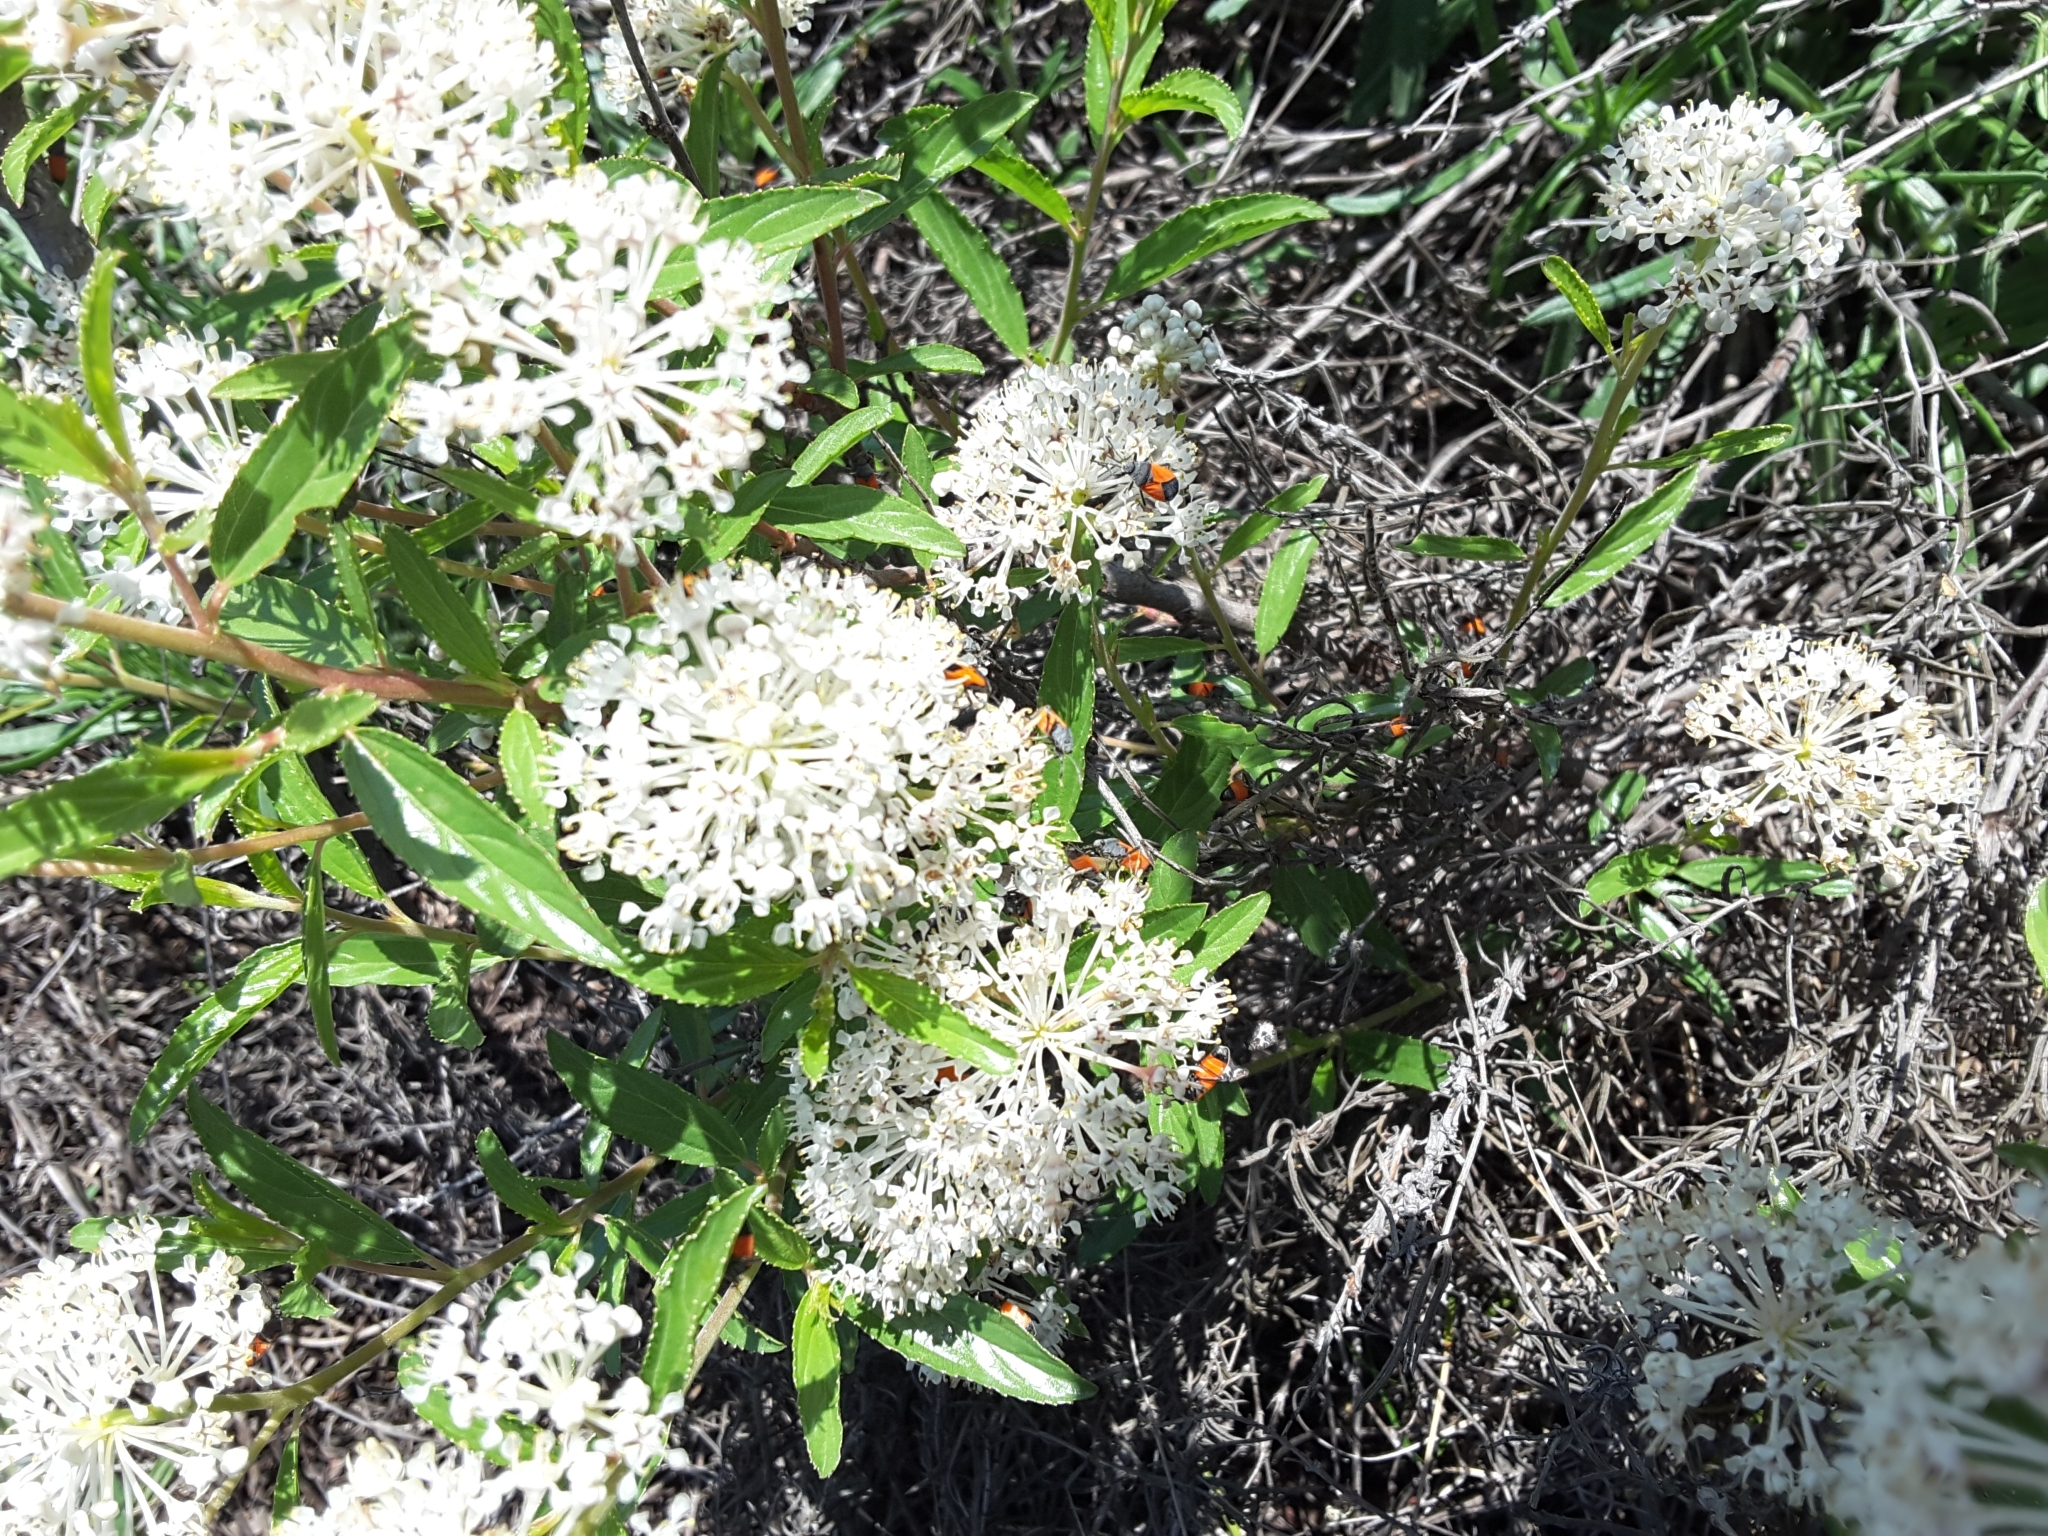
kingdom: Animalia
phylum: Arthropoda
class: Insecta
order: Hemiptera
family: Lygaeidae
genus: Melanopleurus
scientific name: Melanopleurus belfragei
